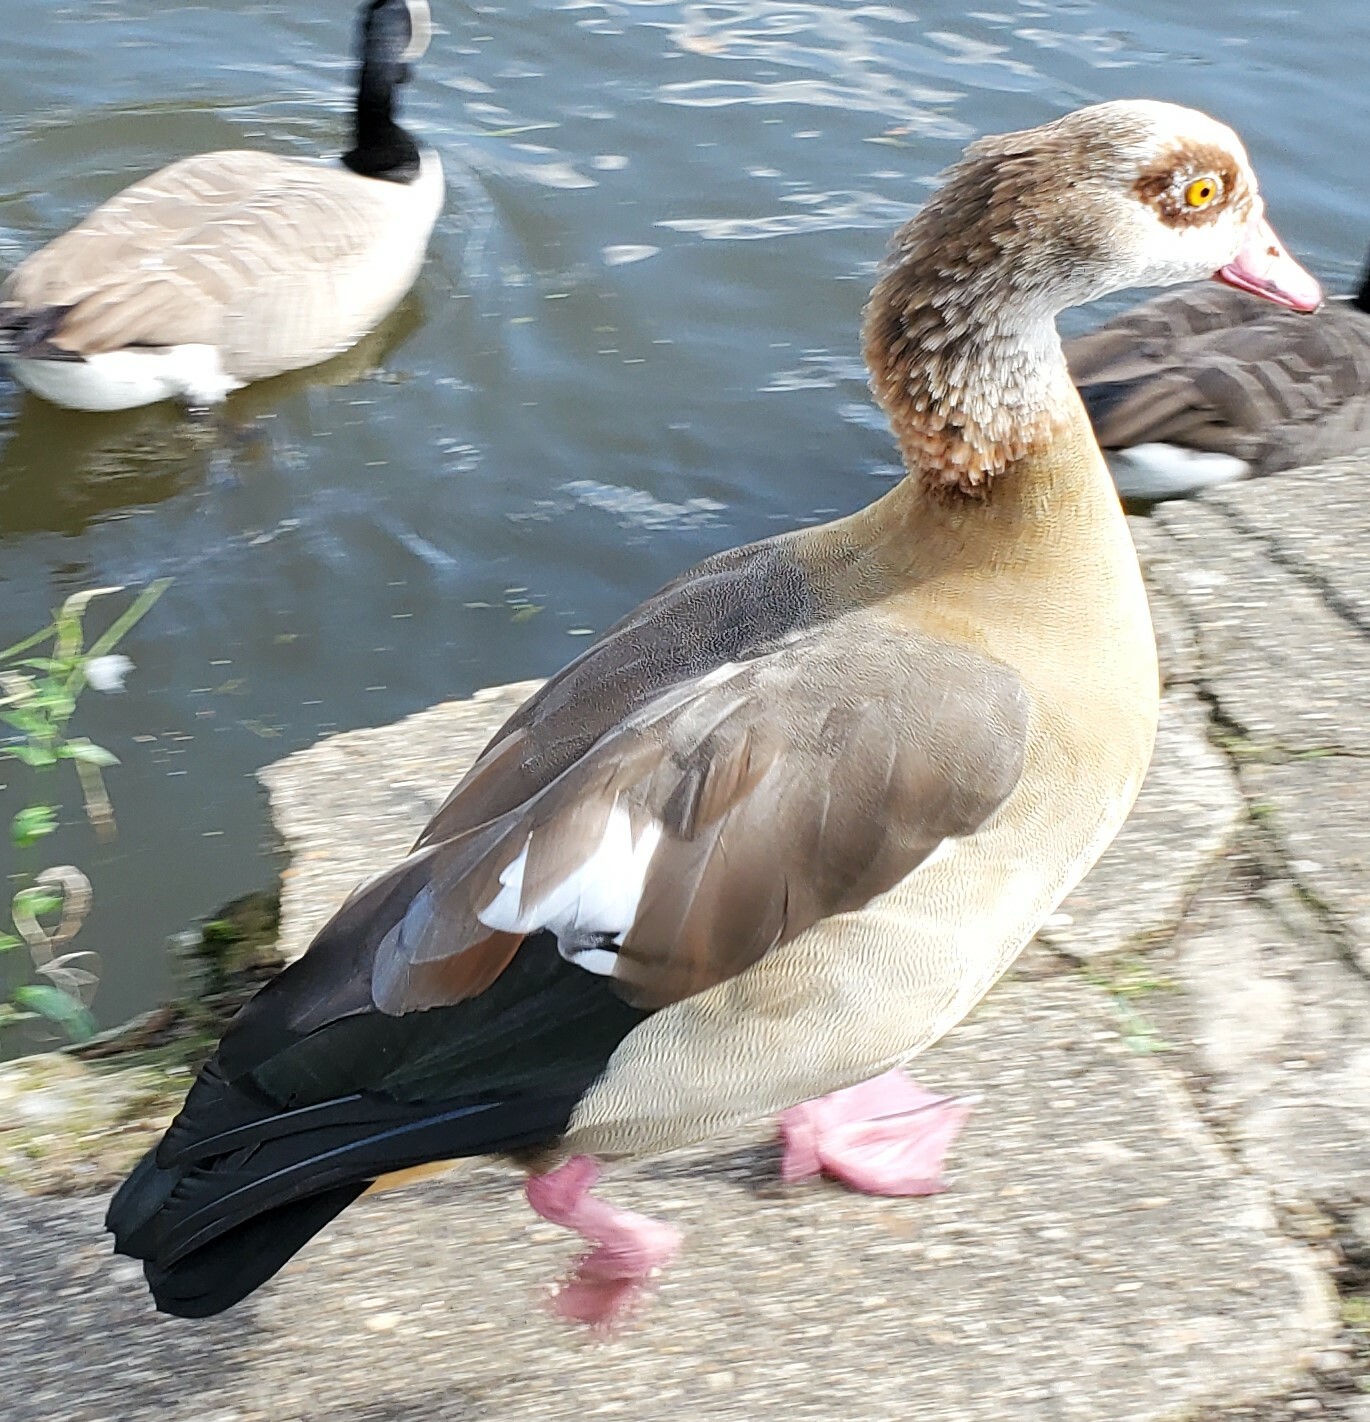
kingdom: Animalia
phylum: Chordata
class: Aves
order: Anseriformes
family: Anatidae
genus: Alopochen
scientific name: Alopochen aegyptiaca
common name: Egyptian goose
